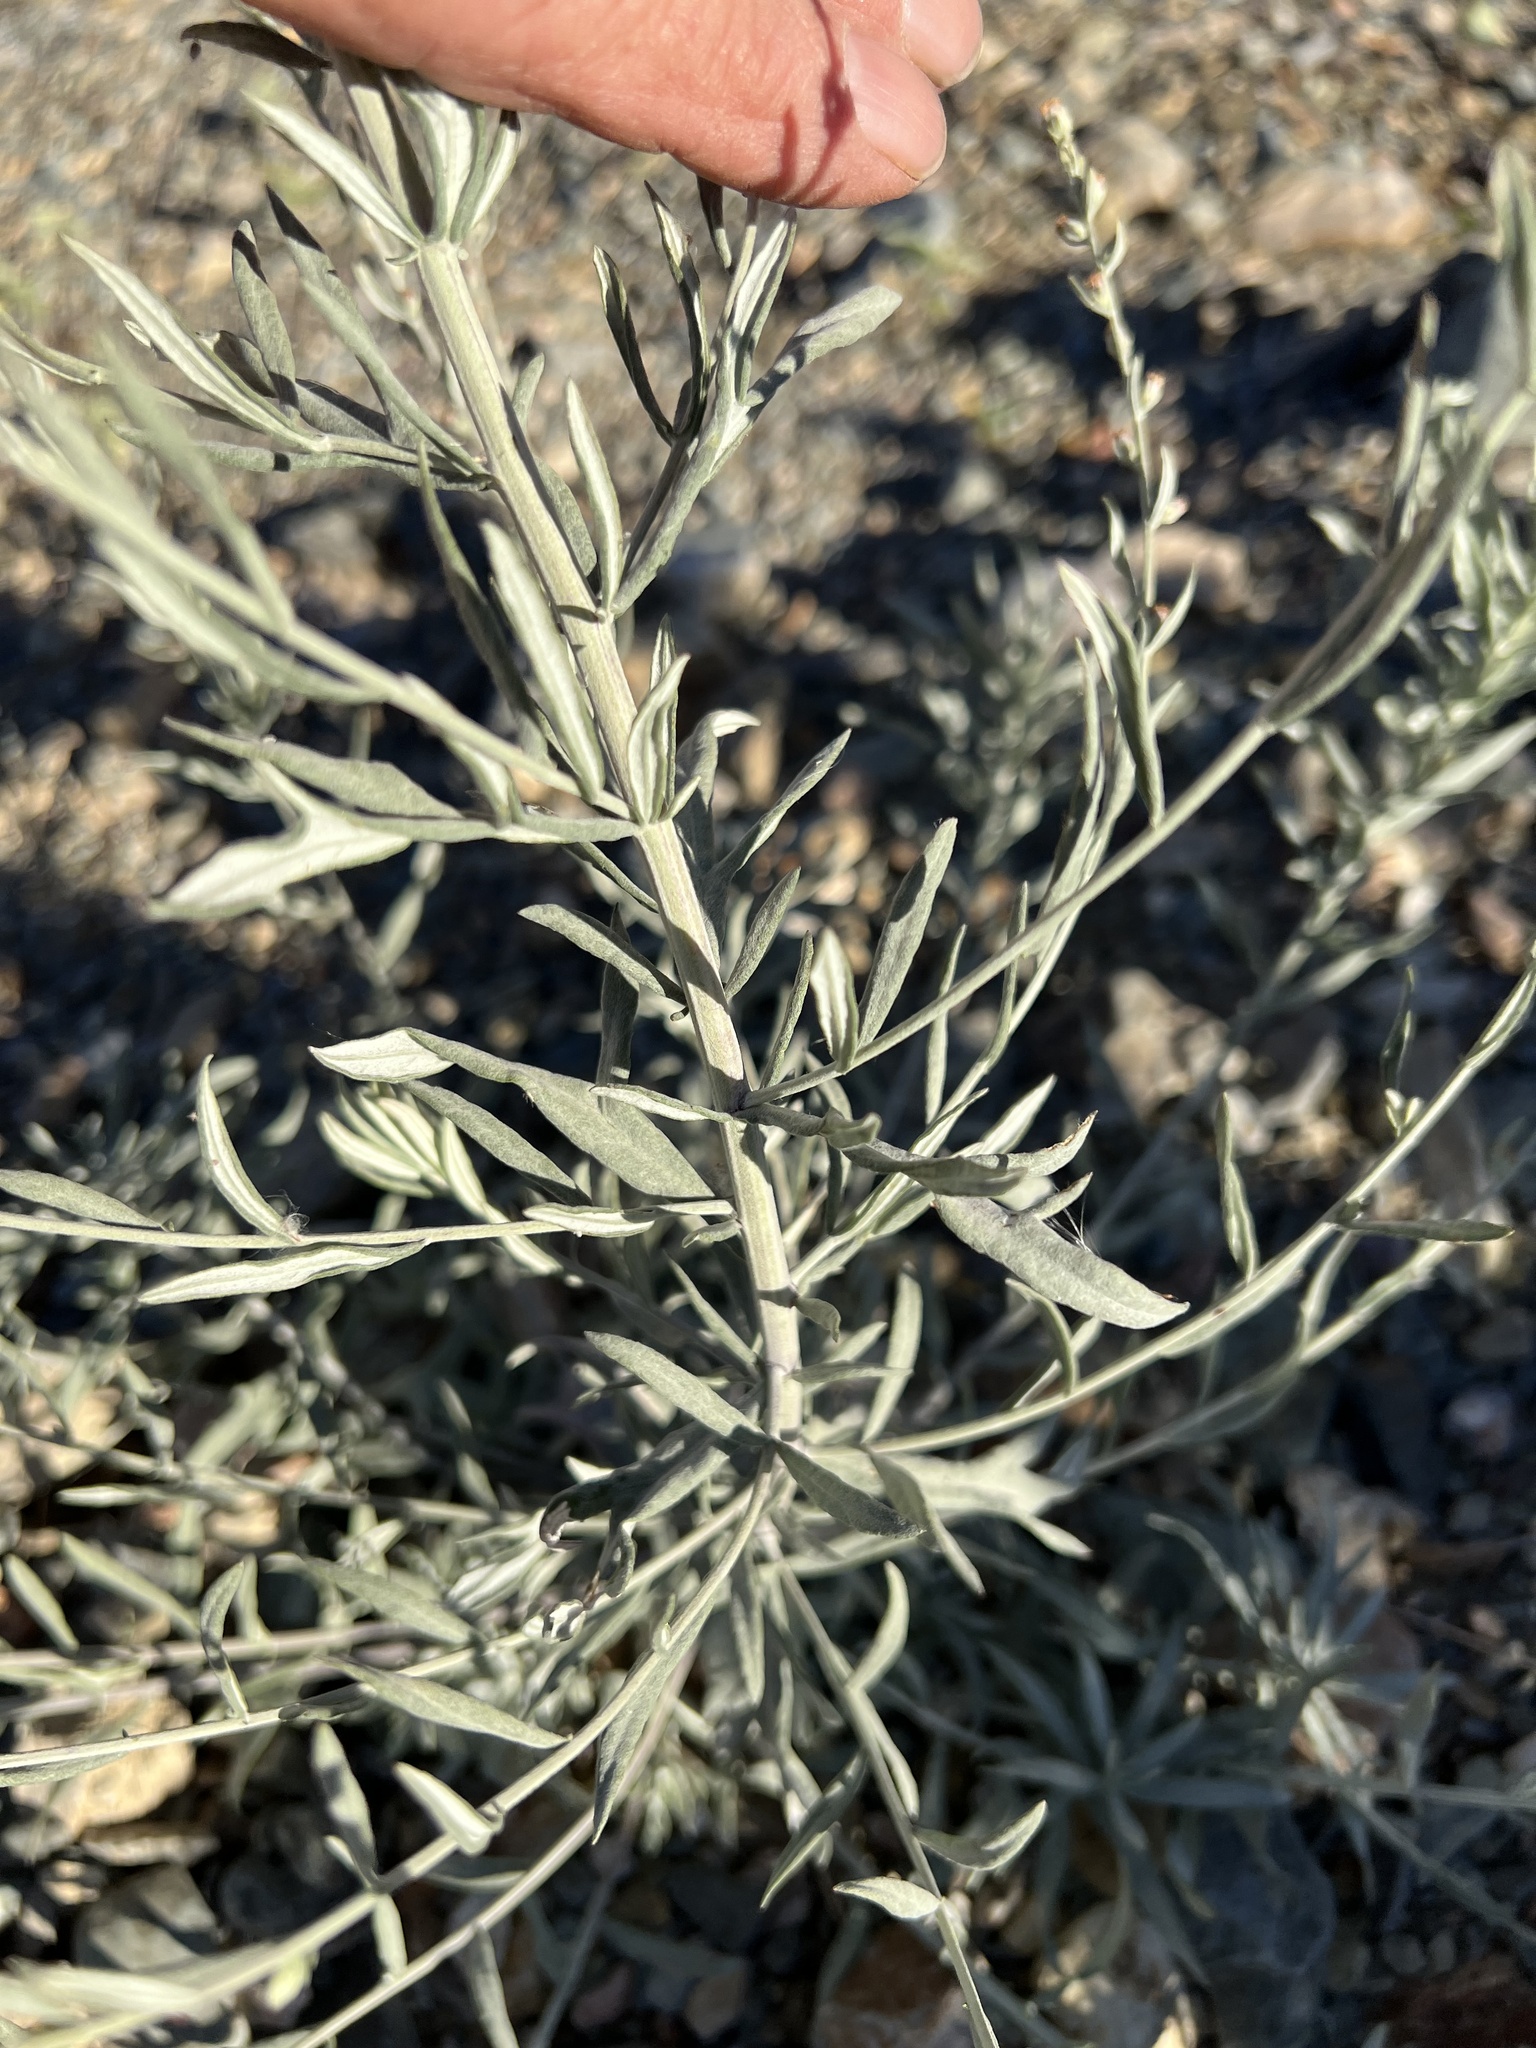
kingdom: Plantae
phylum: Tracheophyta
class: Magnoliopsida
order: Asterales
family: Asteraceae
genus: Artemisia
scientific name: Artemisia ludoviciana
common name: Western mugwort
